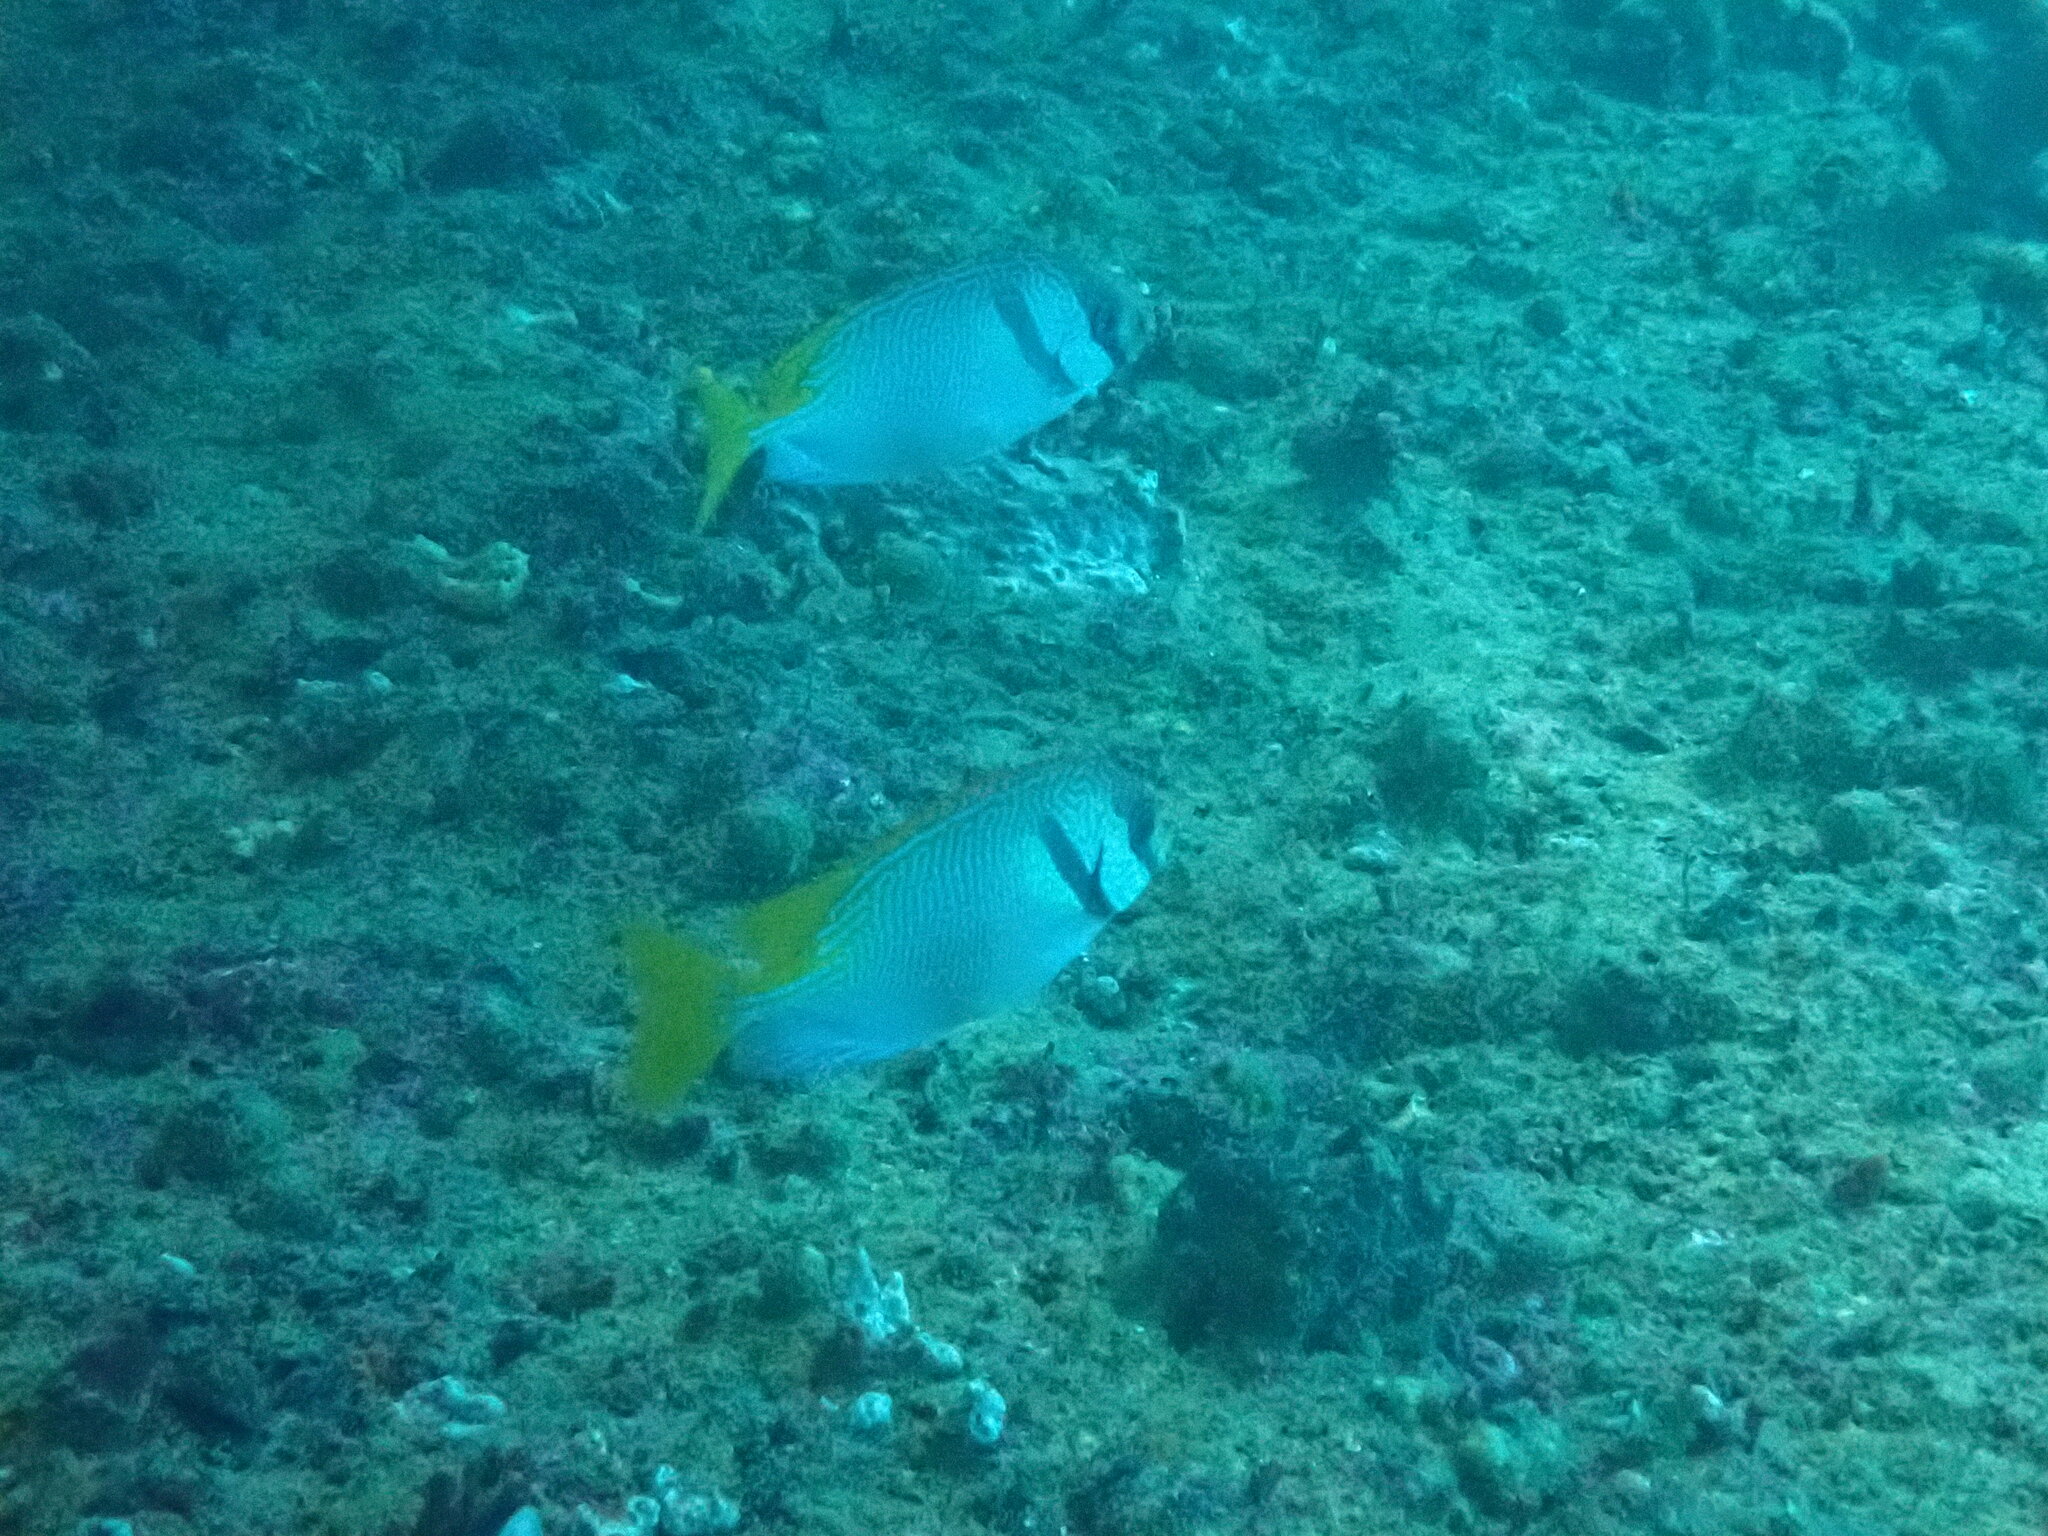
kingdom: Animalia
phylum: Chordata
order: Perciformes
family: Siganidae
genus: Siganus
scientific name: Siganus doliatus
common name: Barred spinefoot
